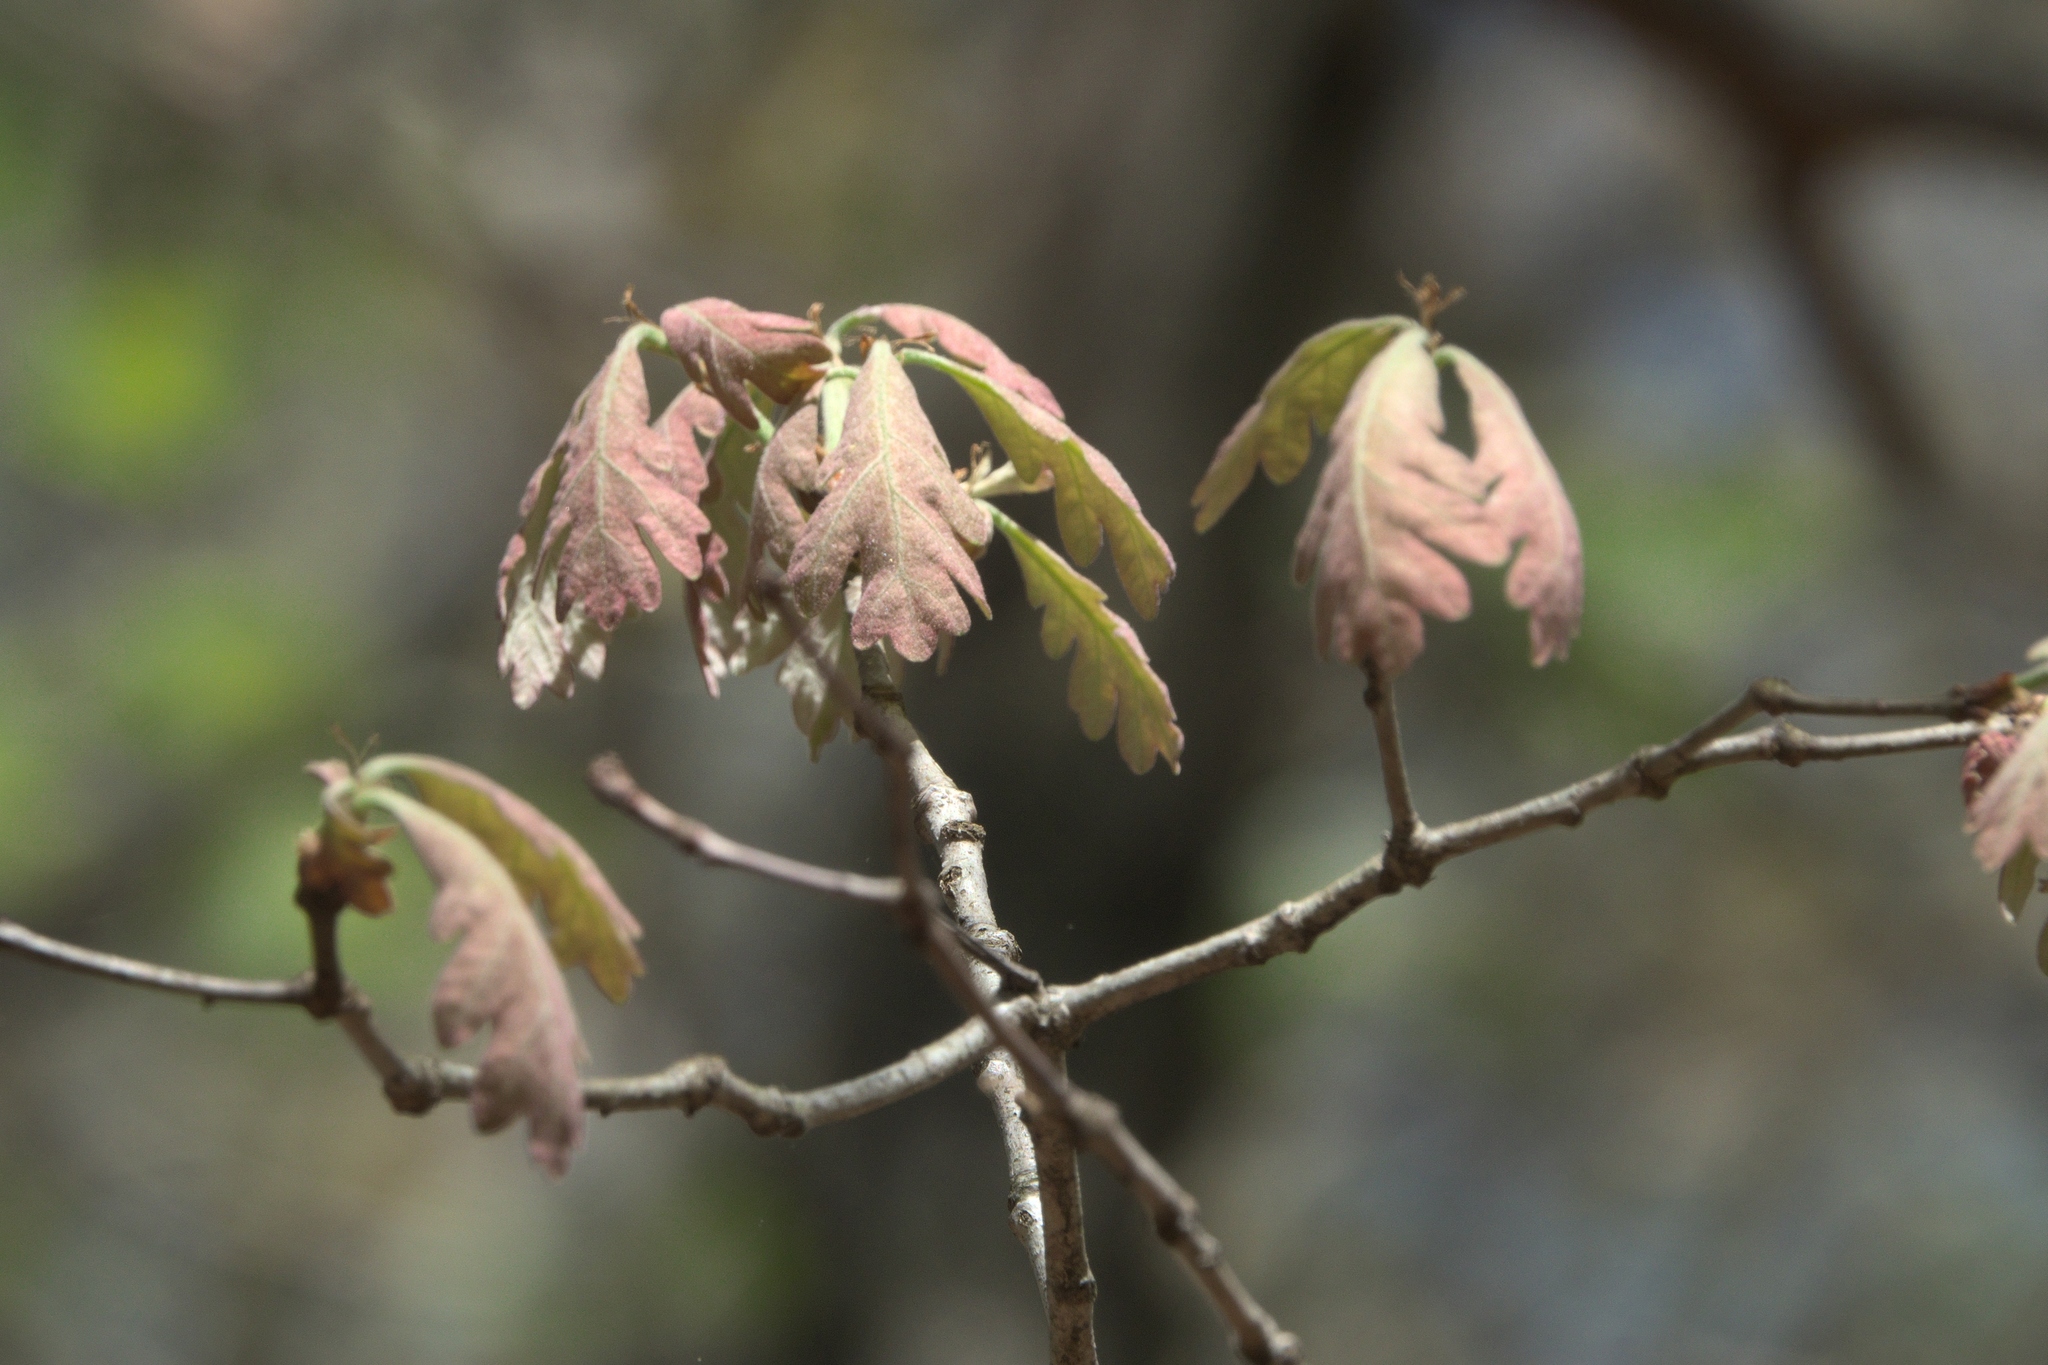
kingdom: Plantae
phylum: Tracheophyta
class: Magnoliopsida
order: Fagales
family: Fagaceae
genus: Quercus
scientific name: Quercus alba
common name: White oak
